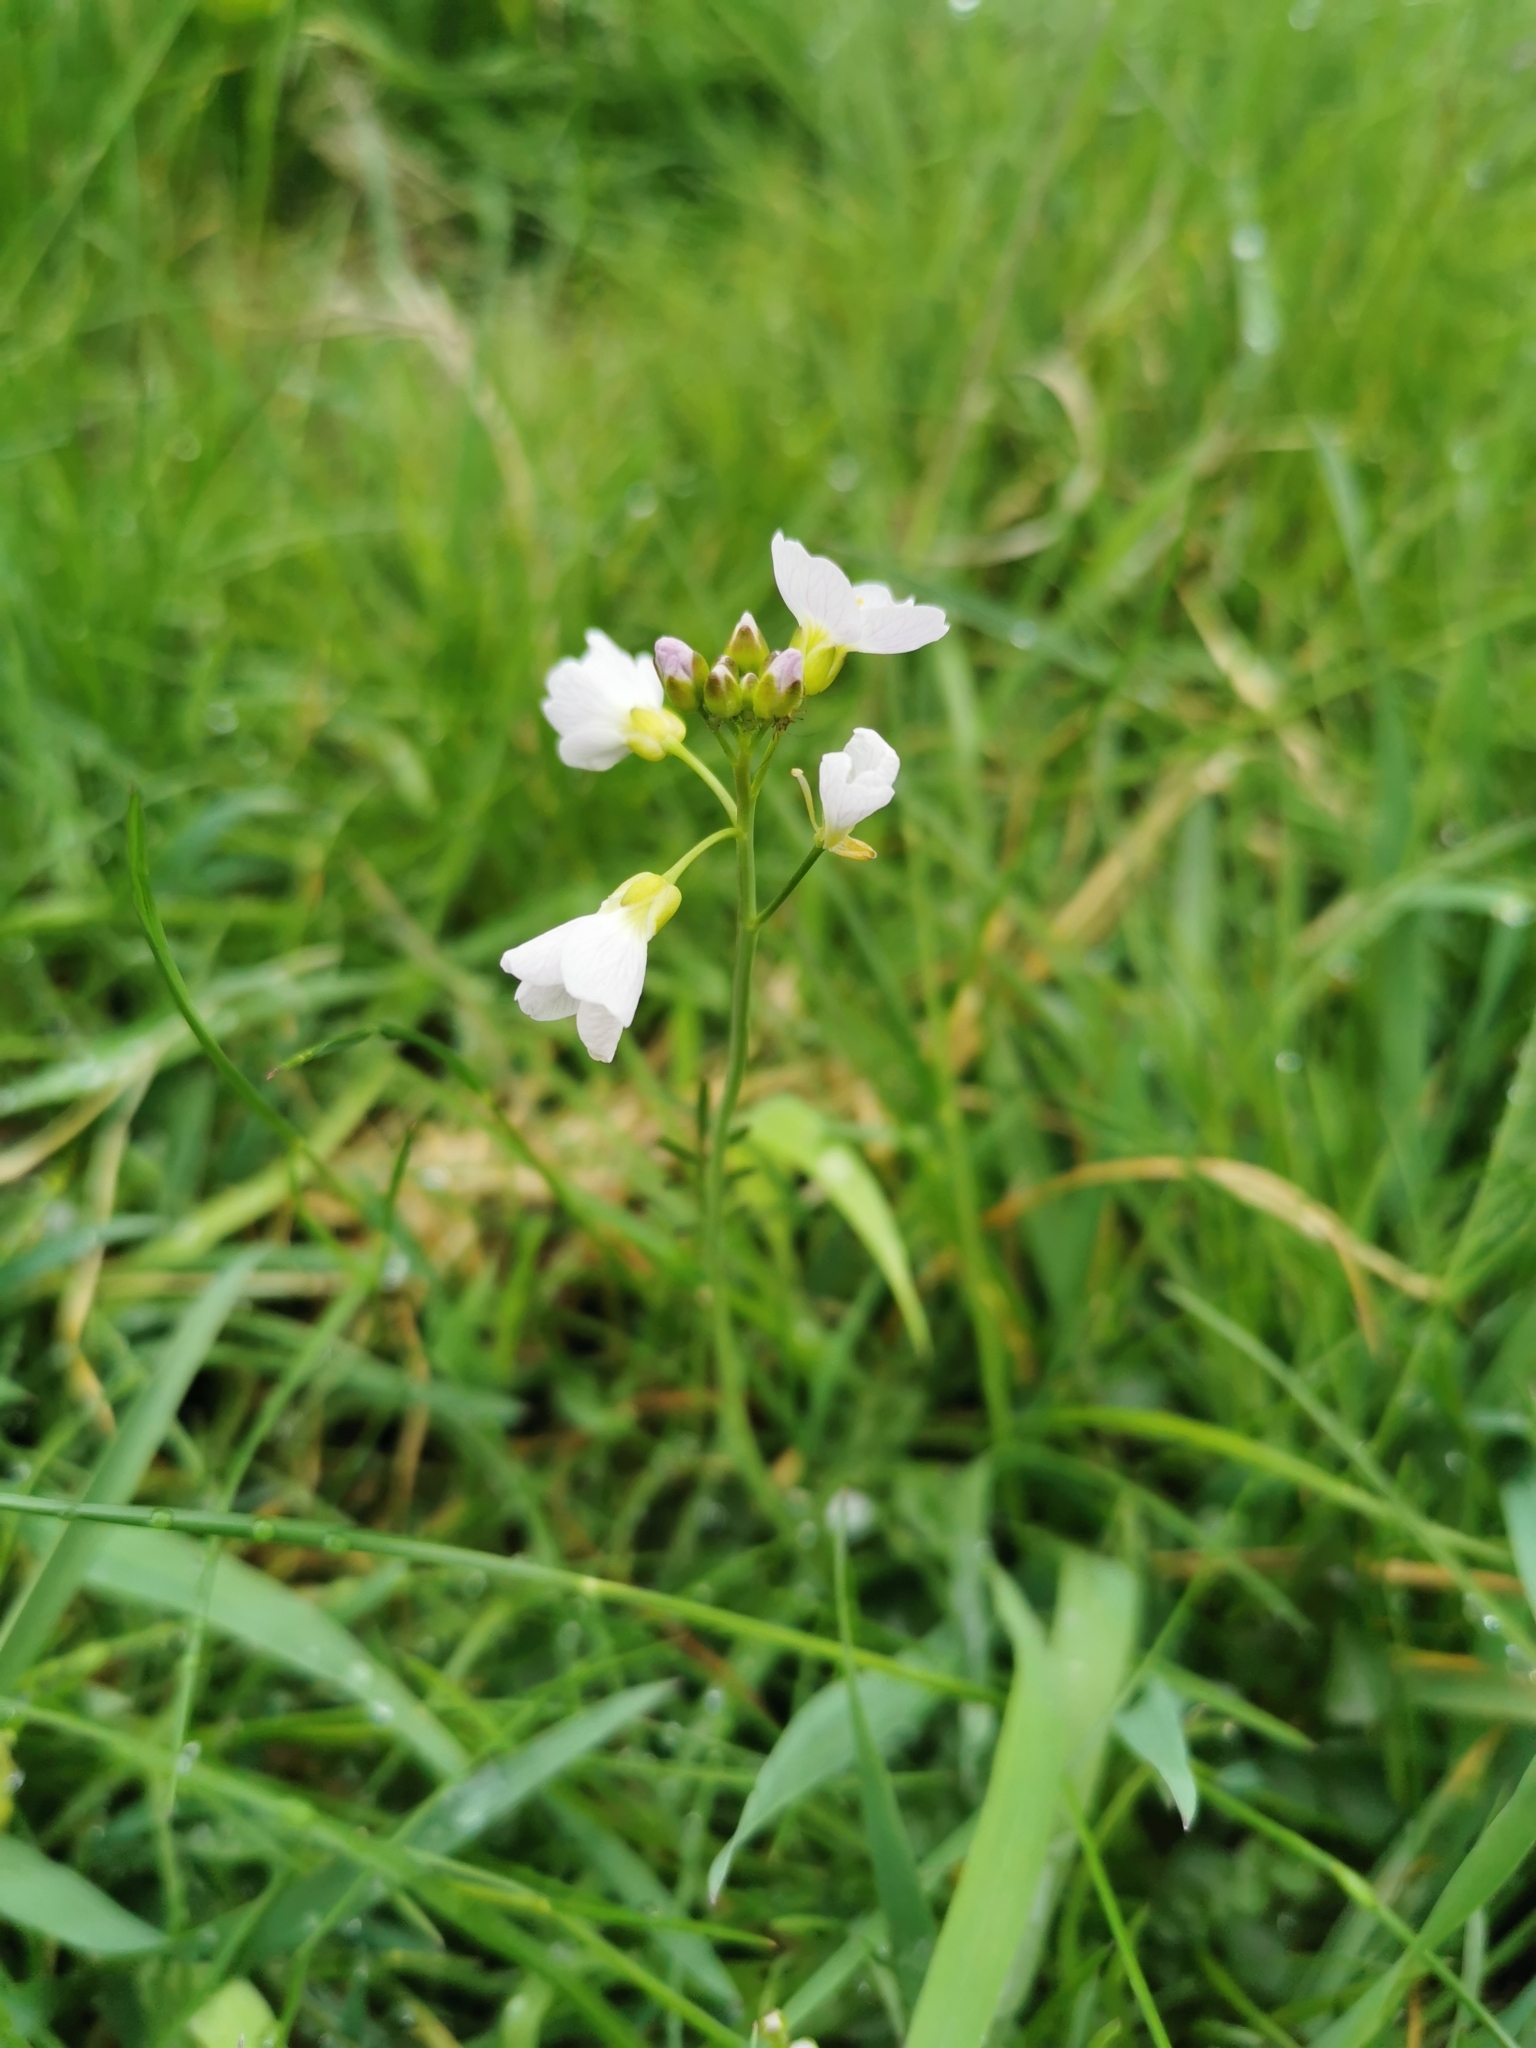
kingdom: Plantae
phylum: Tracheophyta
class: Magnoliopsida
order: Brassicales
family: Brassicaceae
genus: Cardamine
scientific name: Cardamine pratensis
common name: Cuckoo flower
